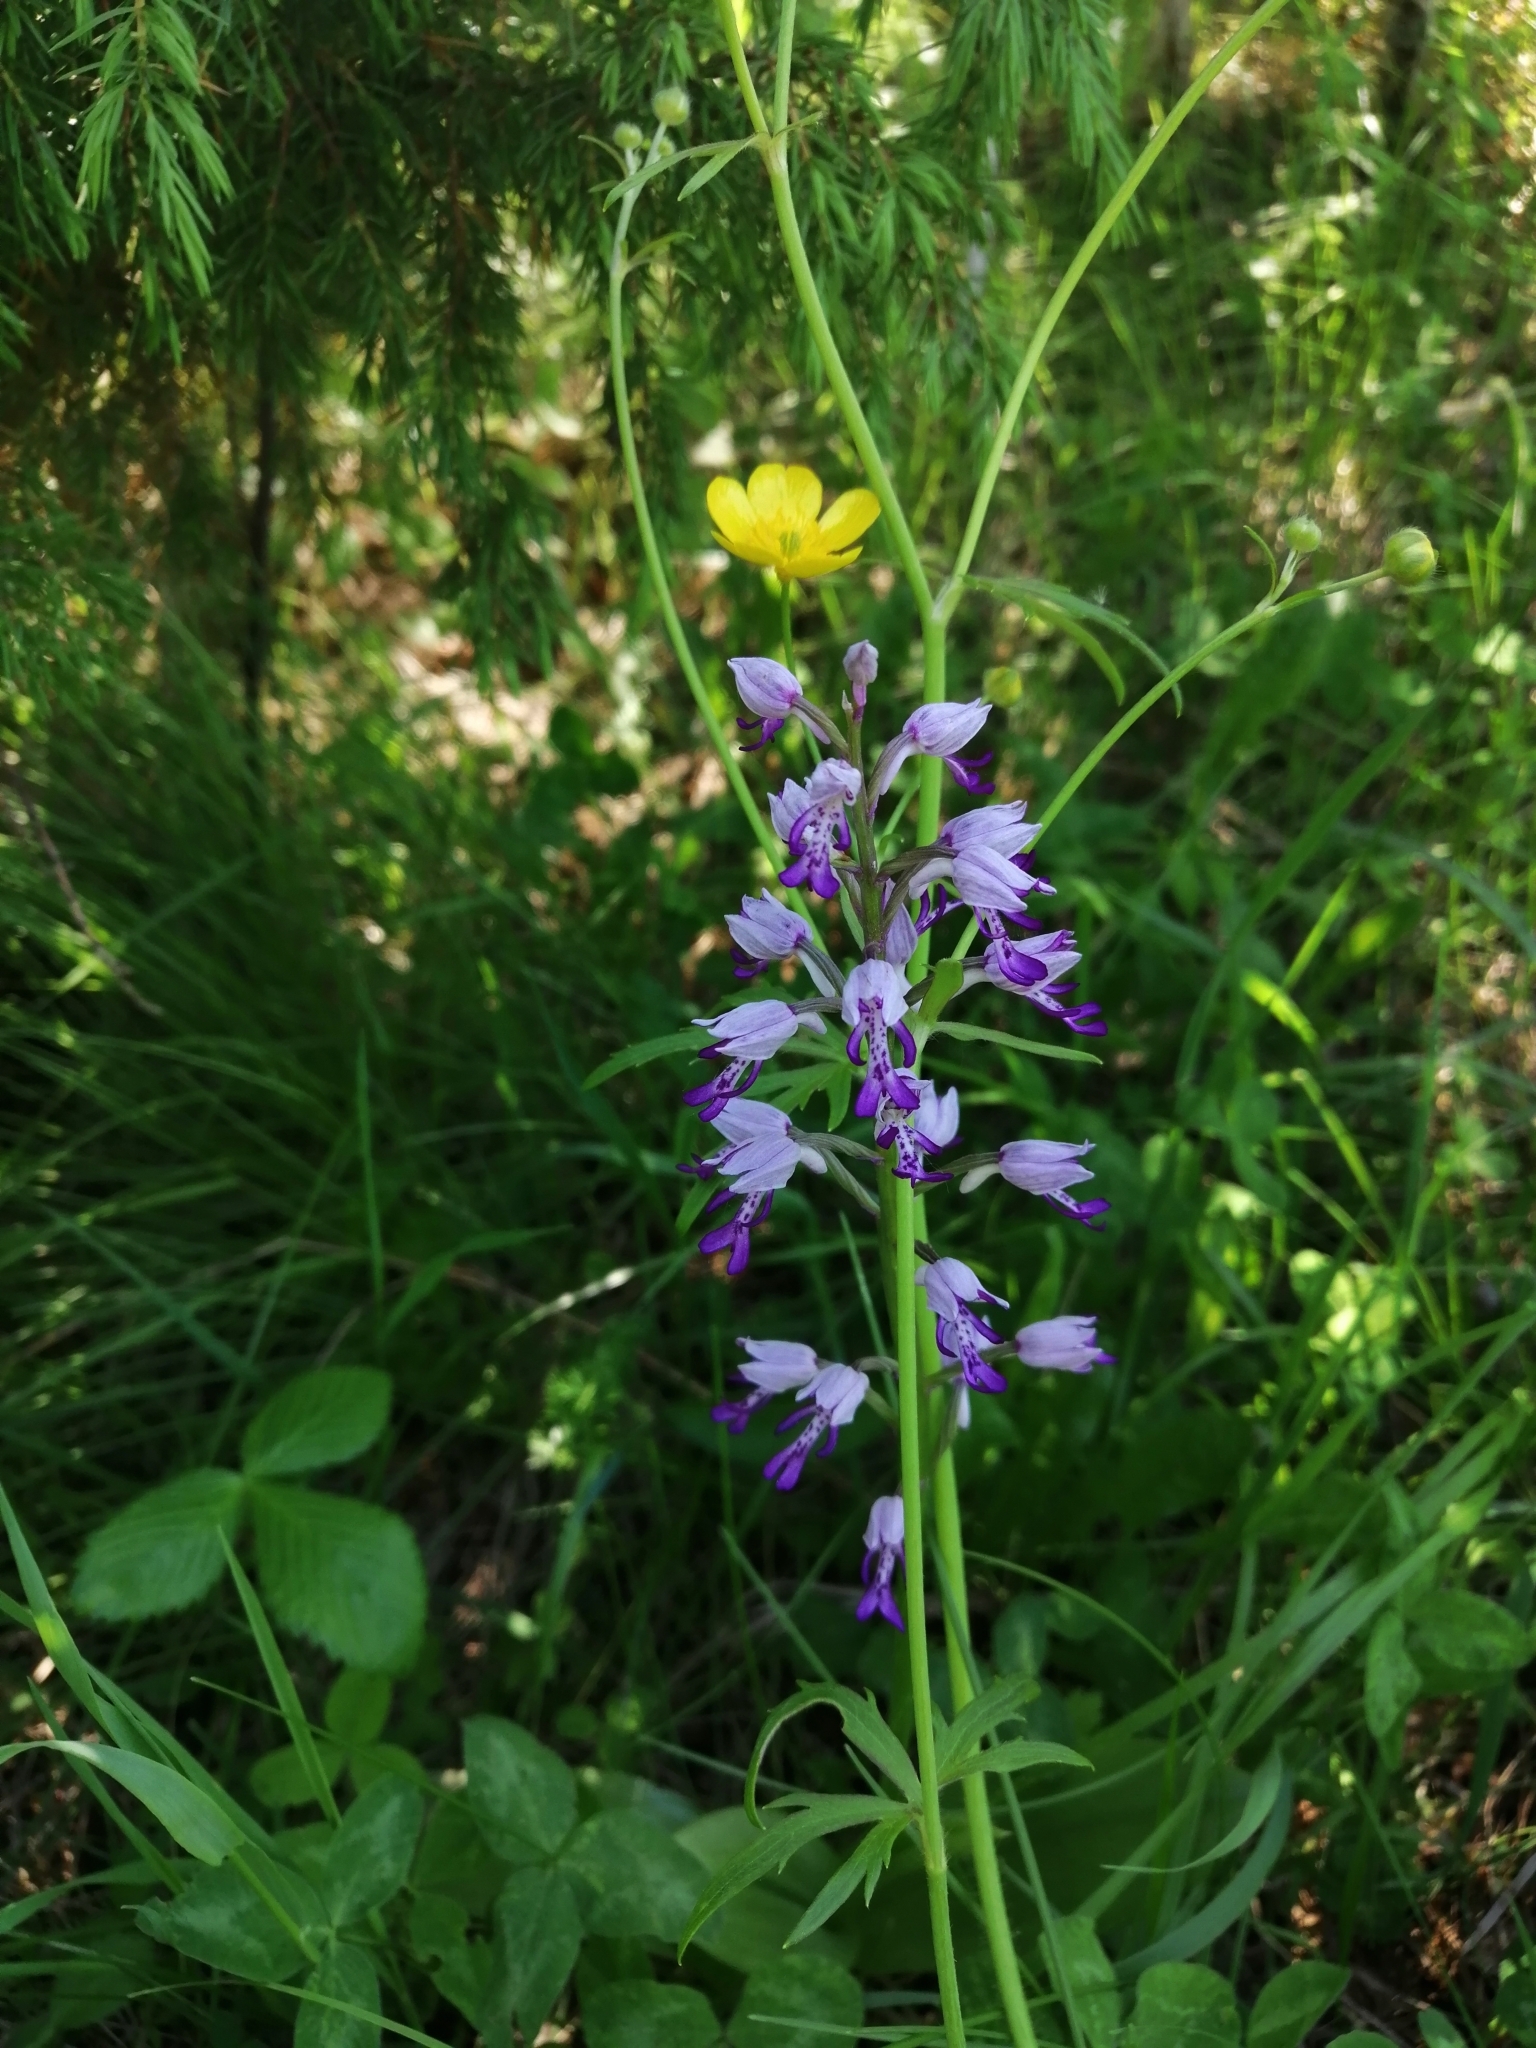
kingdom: Plantae
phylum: Tracheophyta
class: Liliopsida
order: Asparagales
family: Orchidaceae
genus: Orchis
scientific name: Orchis militaris
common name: Military orchid
